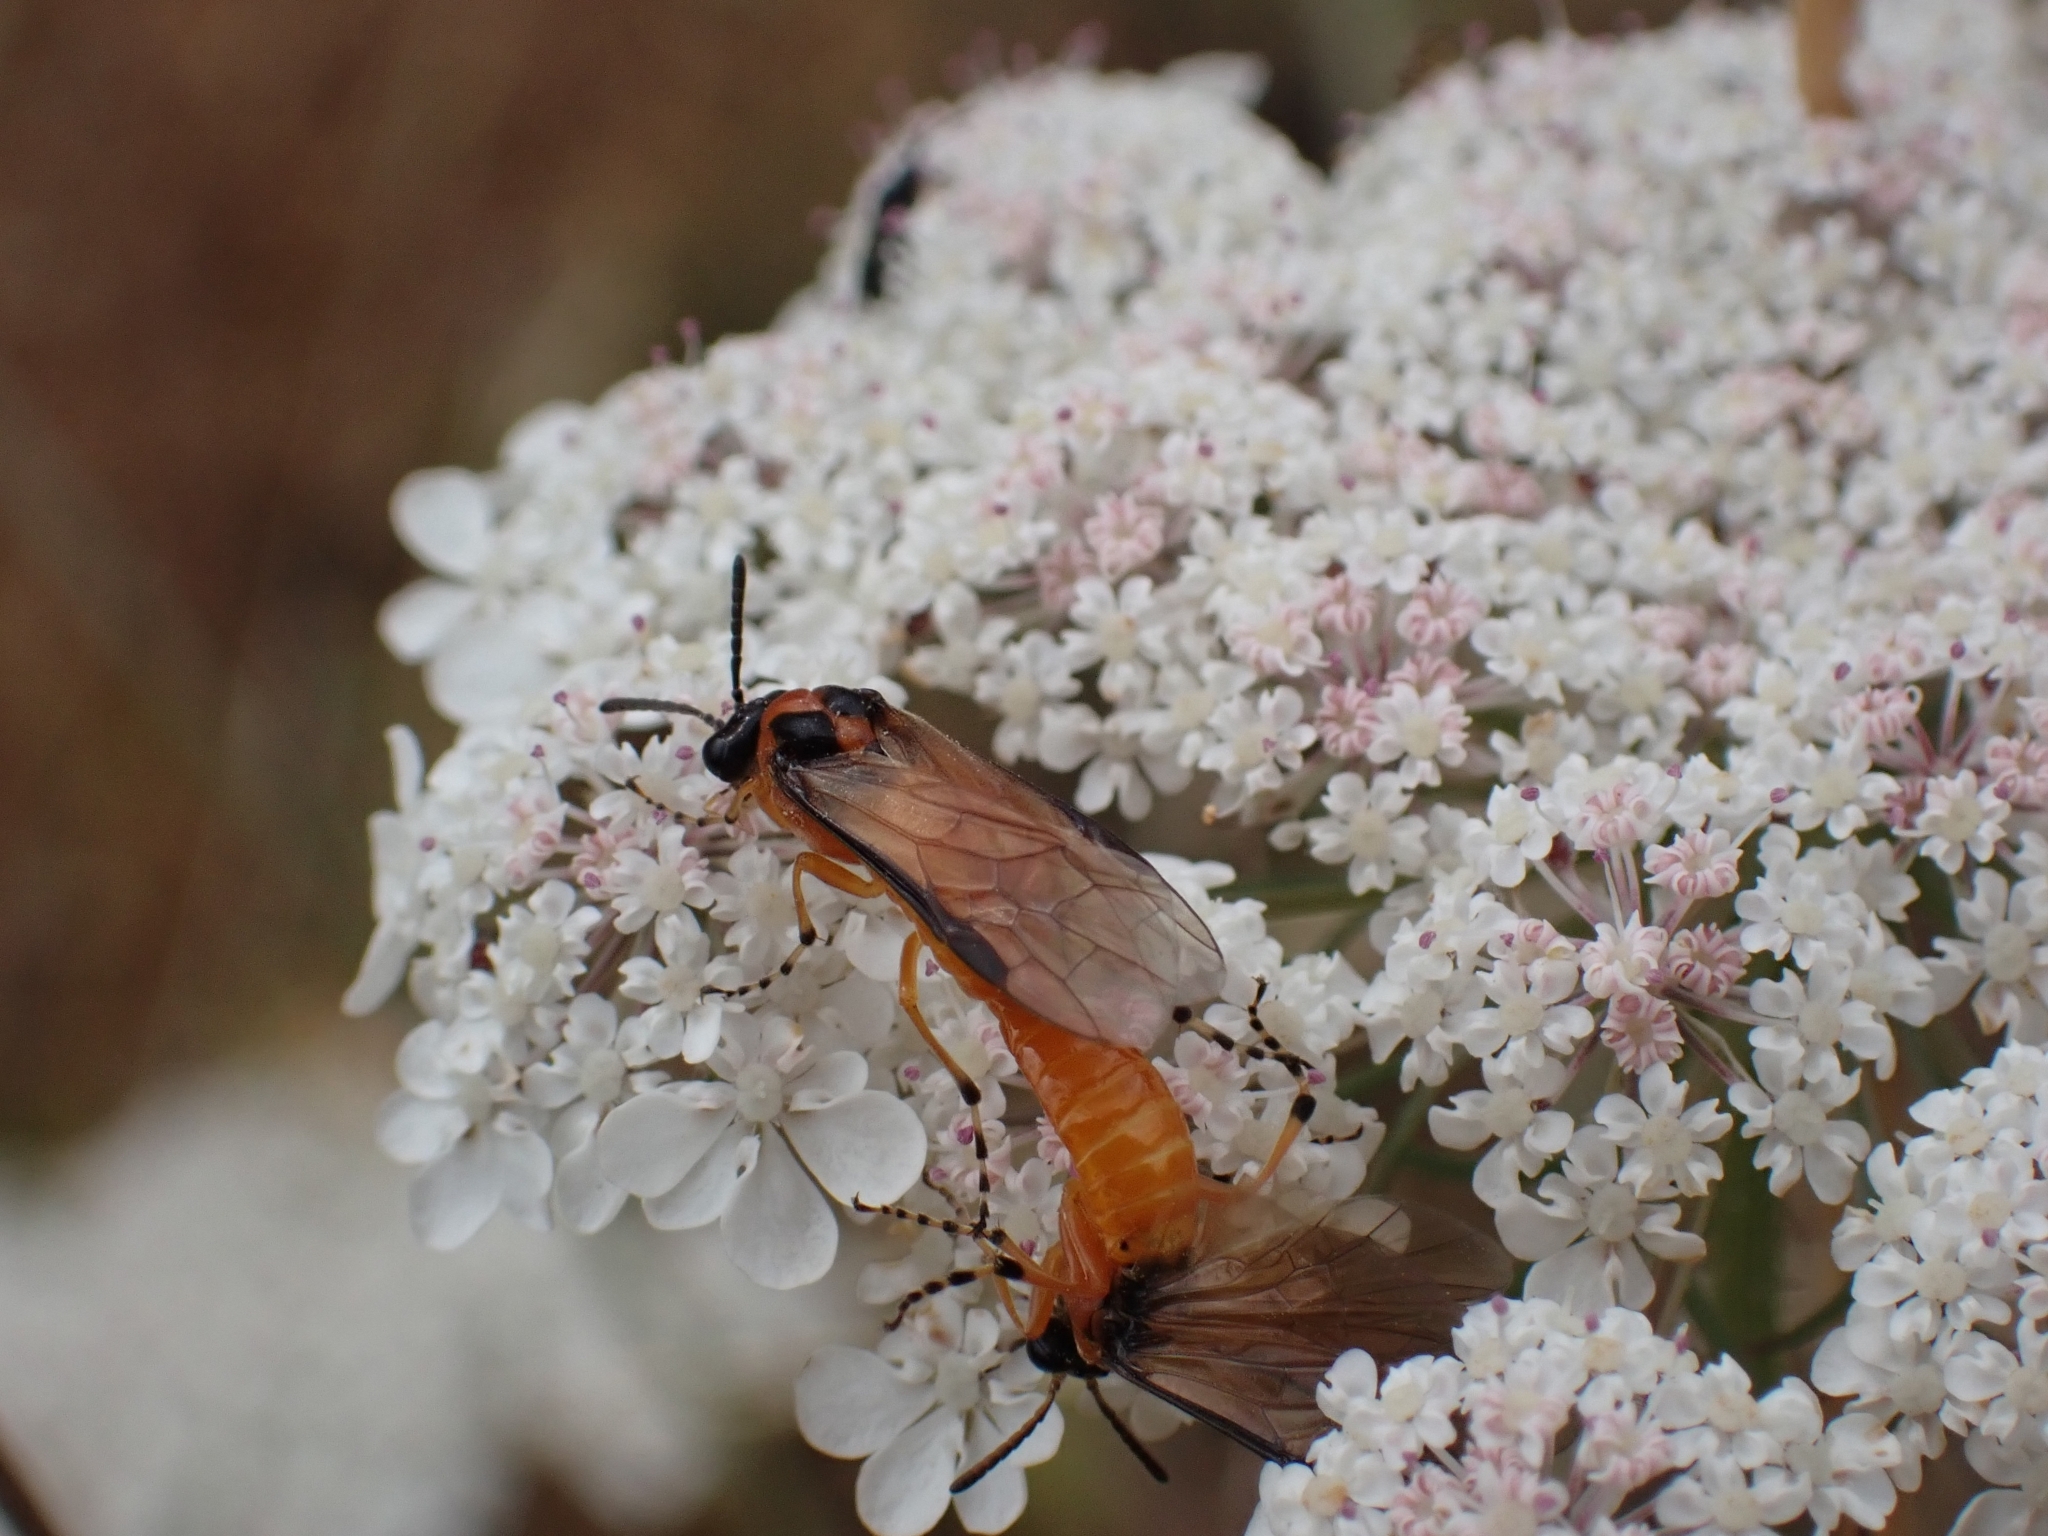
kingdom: Animalia
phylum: Arthropoda
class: Insecta
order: Hymenoptera
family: Tenthredinidae
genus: Athalia
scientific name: Athalia rosae
